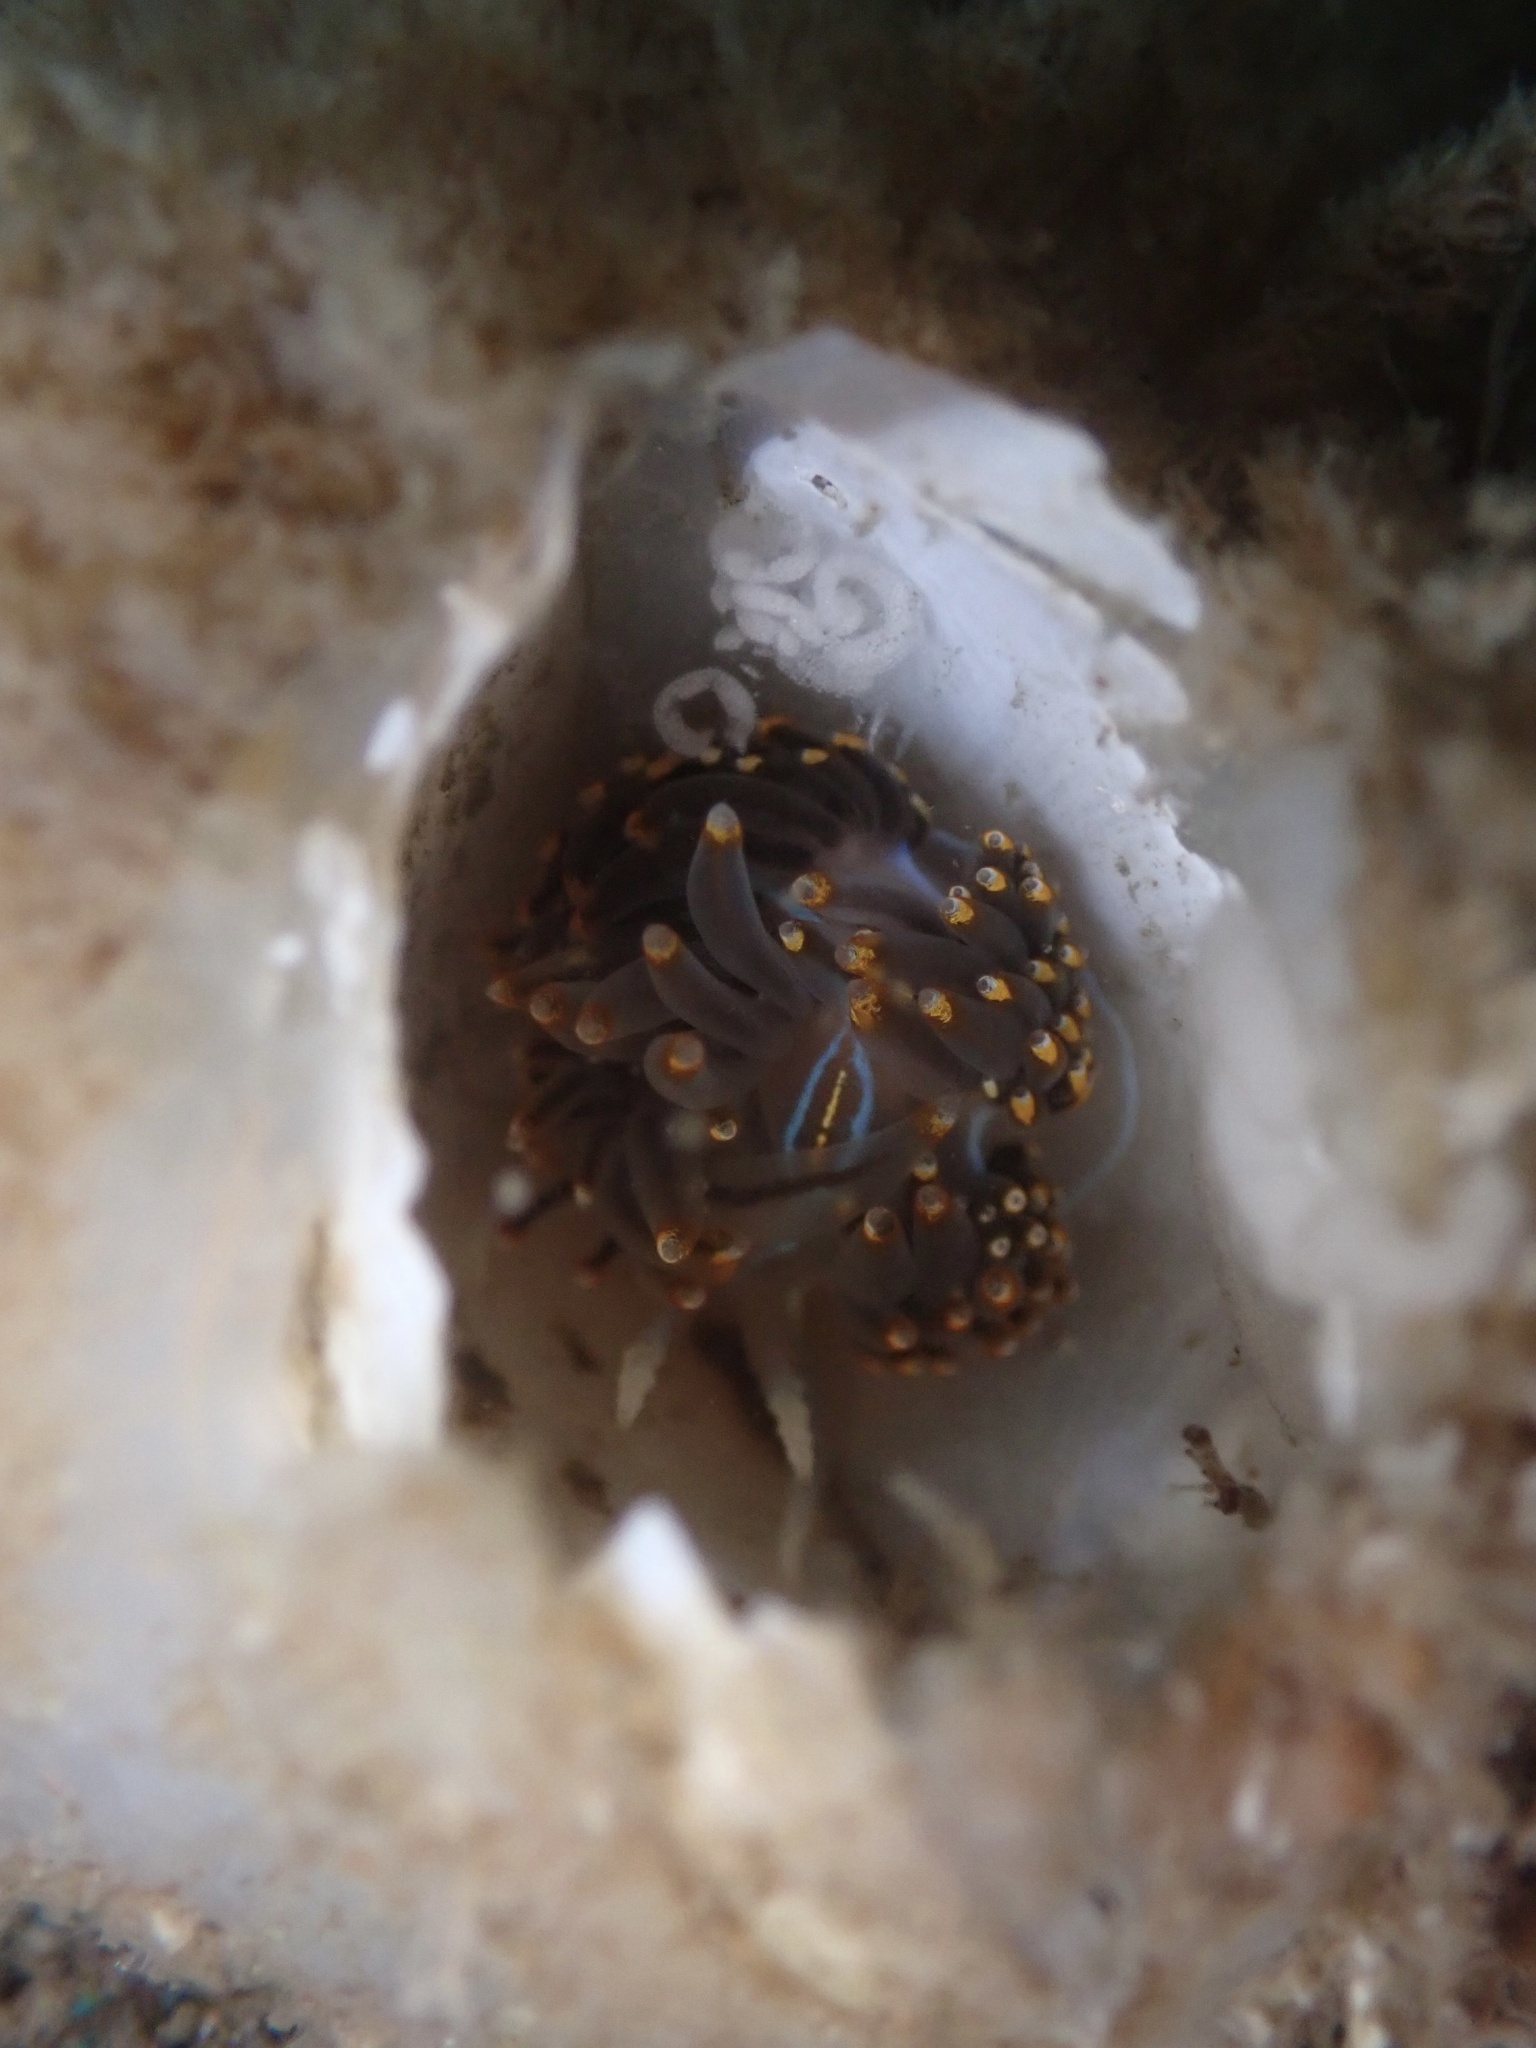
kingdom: Animalia
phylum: Mollusca
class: Gastropoda
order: Nudibranchia
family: Myrrhinidae
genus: Hermissenda
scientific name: Hermissenda opalescens
